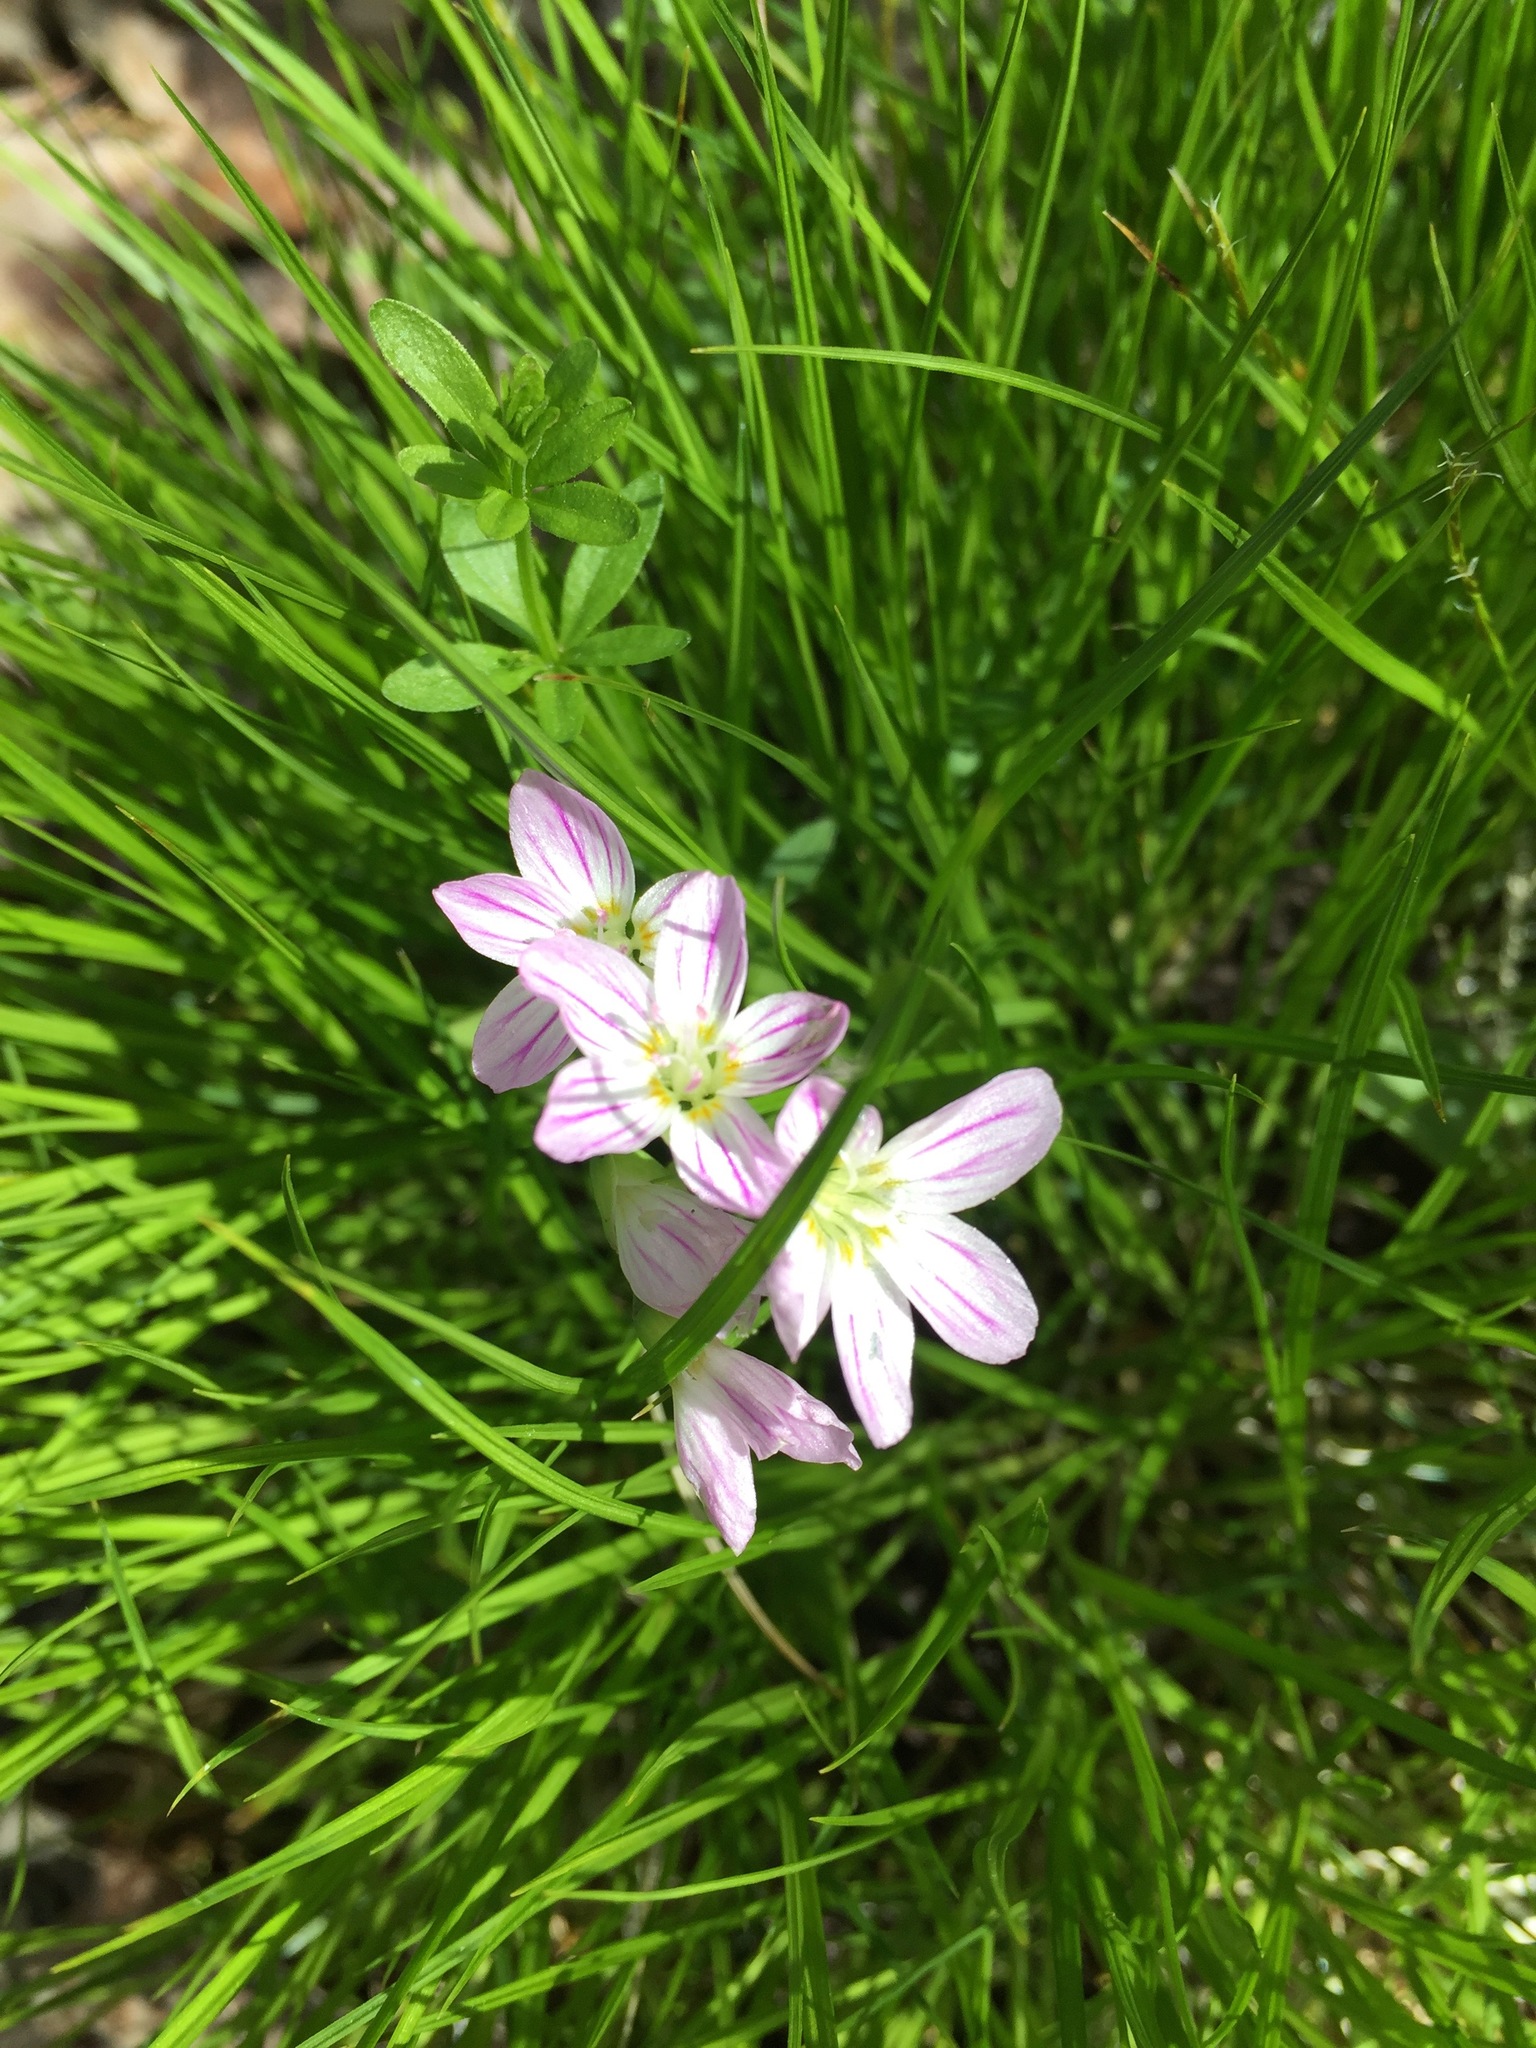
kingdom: Plantae
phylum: Tracheophyta
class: Magnoliopsida
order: Caryophyllales
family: Montiaceae
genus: Claytonia
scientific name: Claytonia caroliniana
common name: Carolina spring beauty
